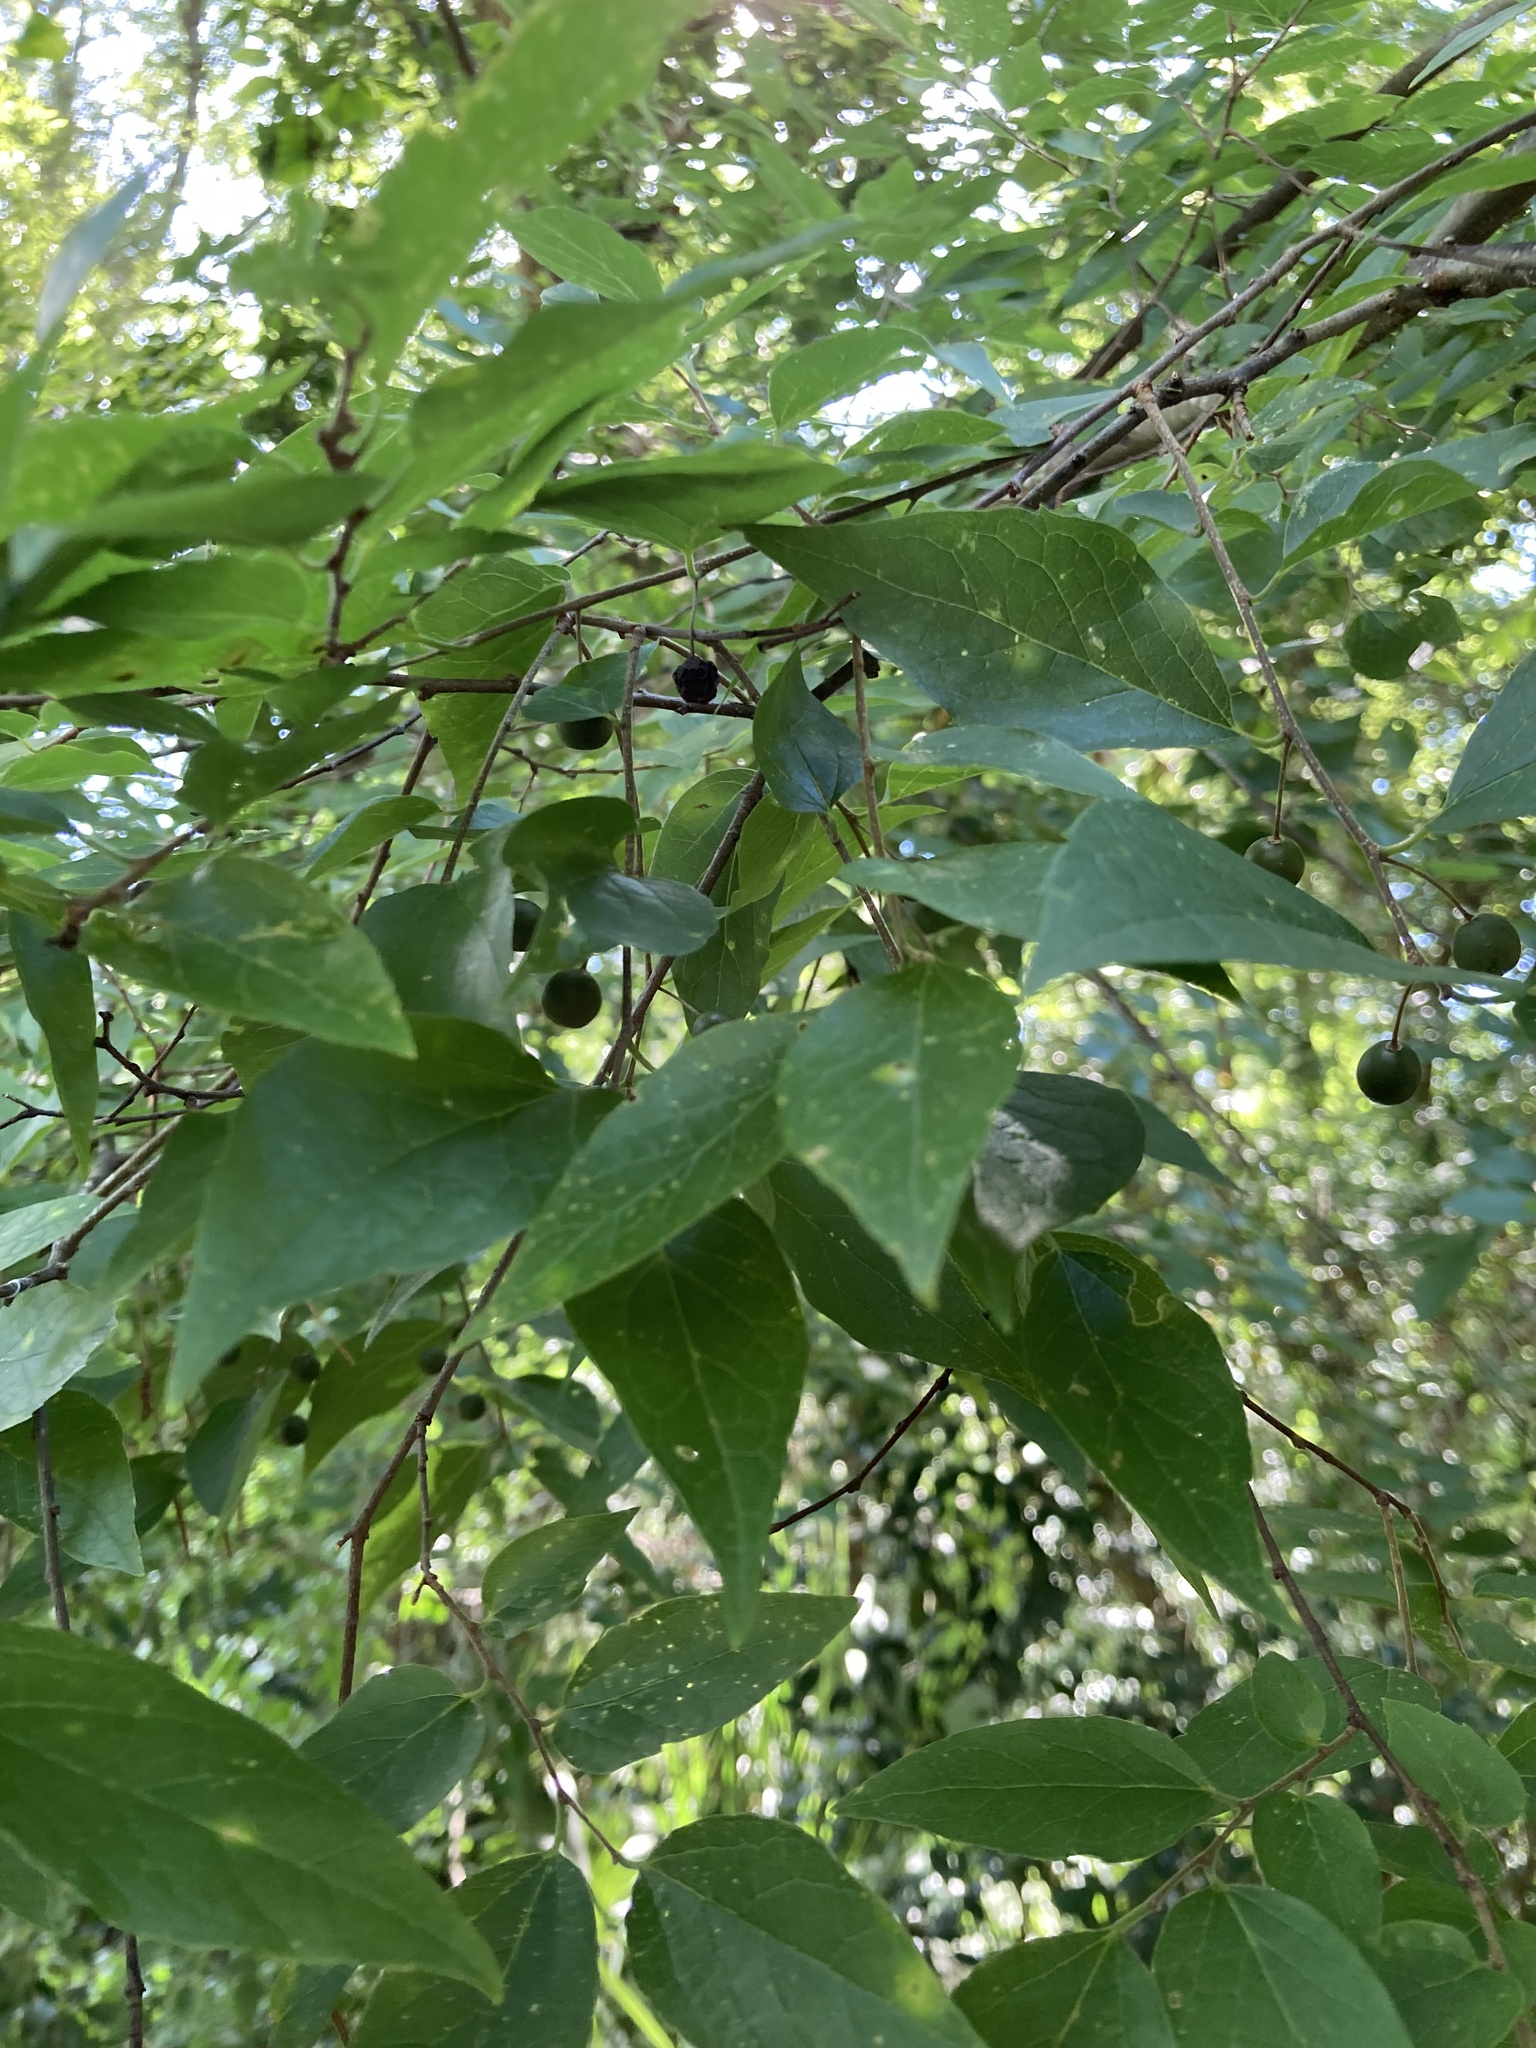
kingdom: Plantae
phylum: Tracheophyta
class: Magnoliopsida
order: Rosales
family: Cannabaceae
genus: Celtis
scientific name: Celtis laevigata
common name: Sugarberry
